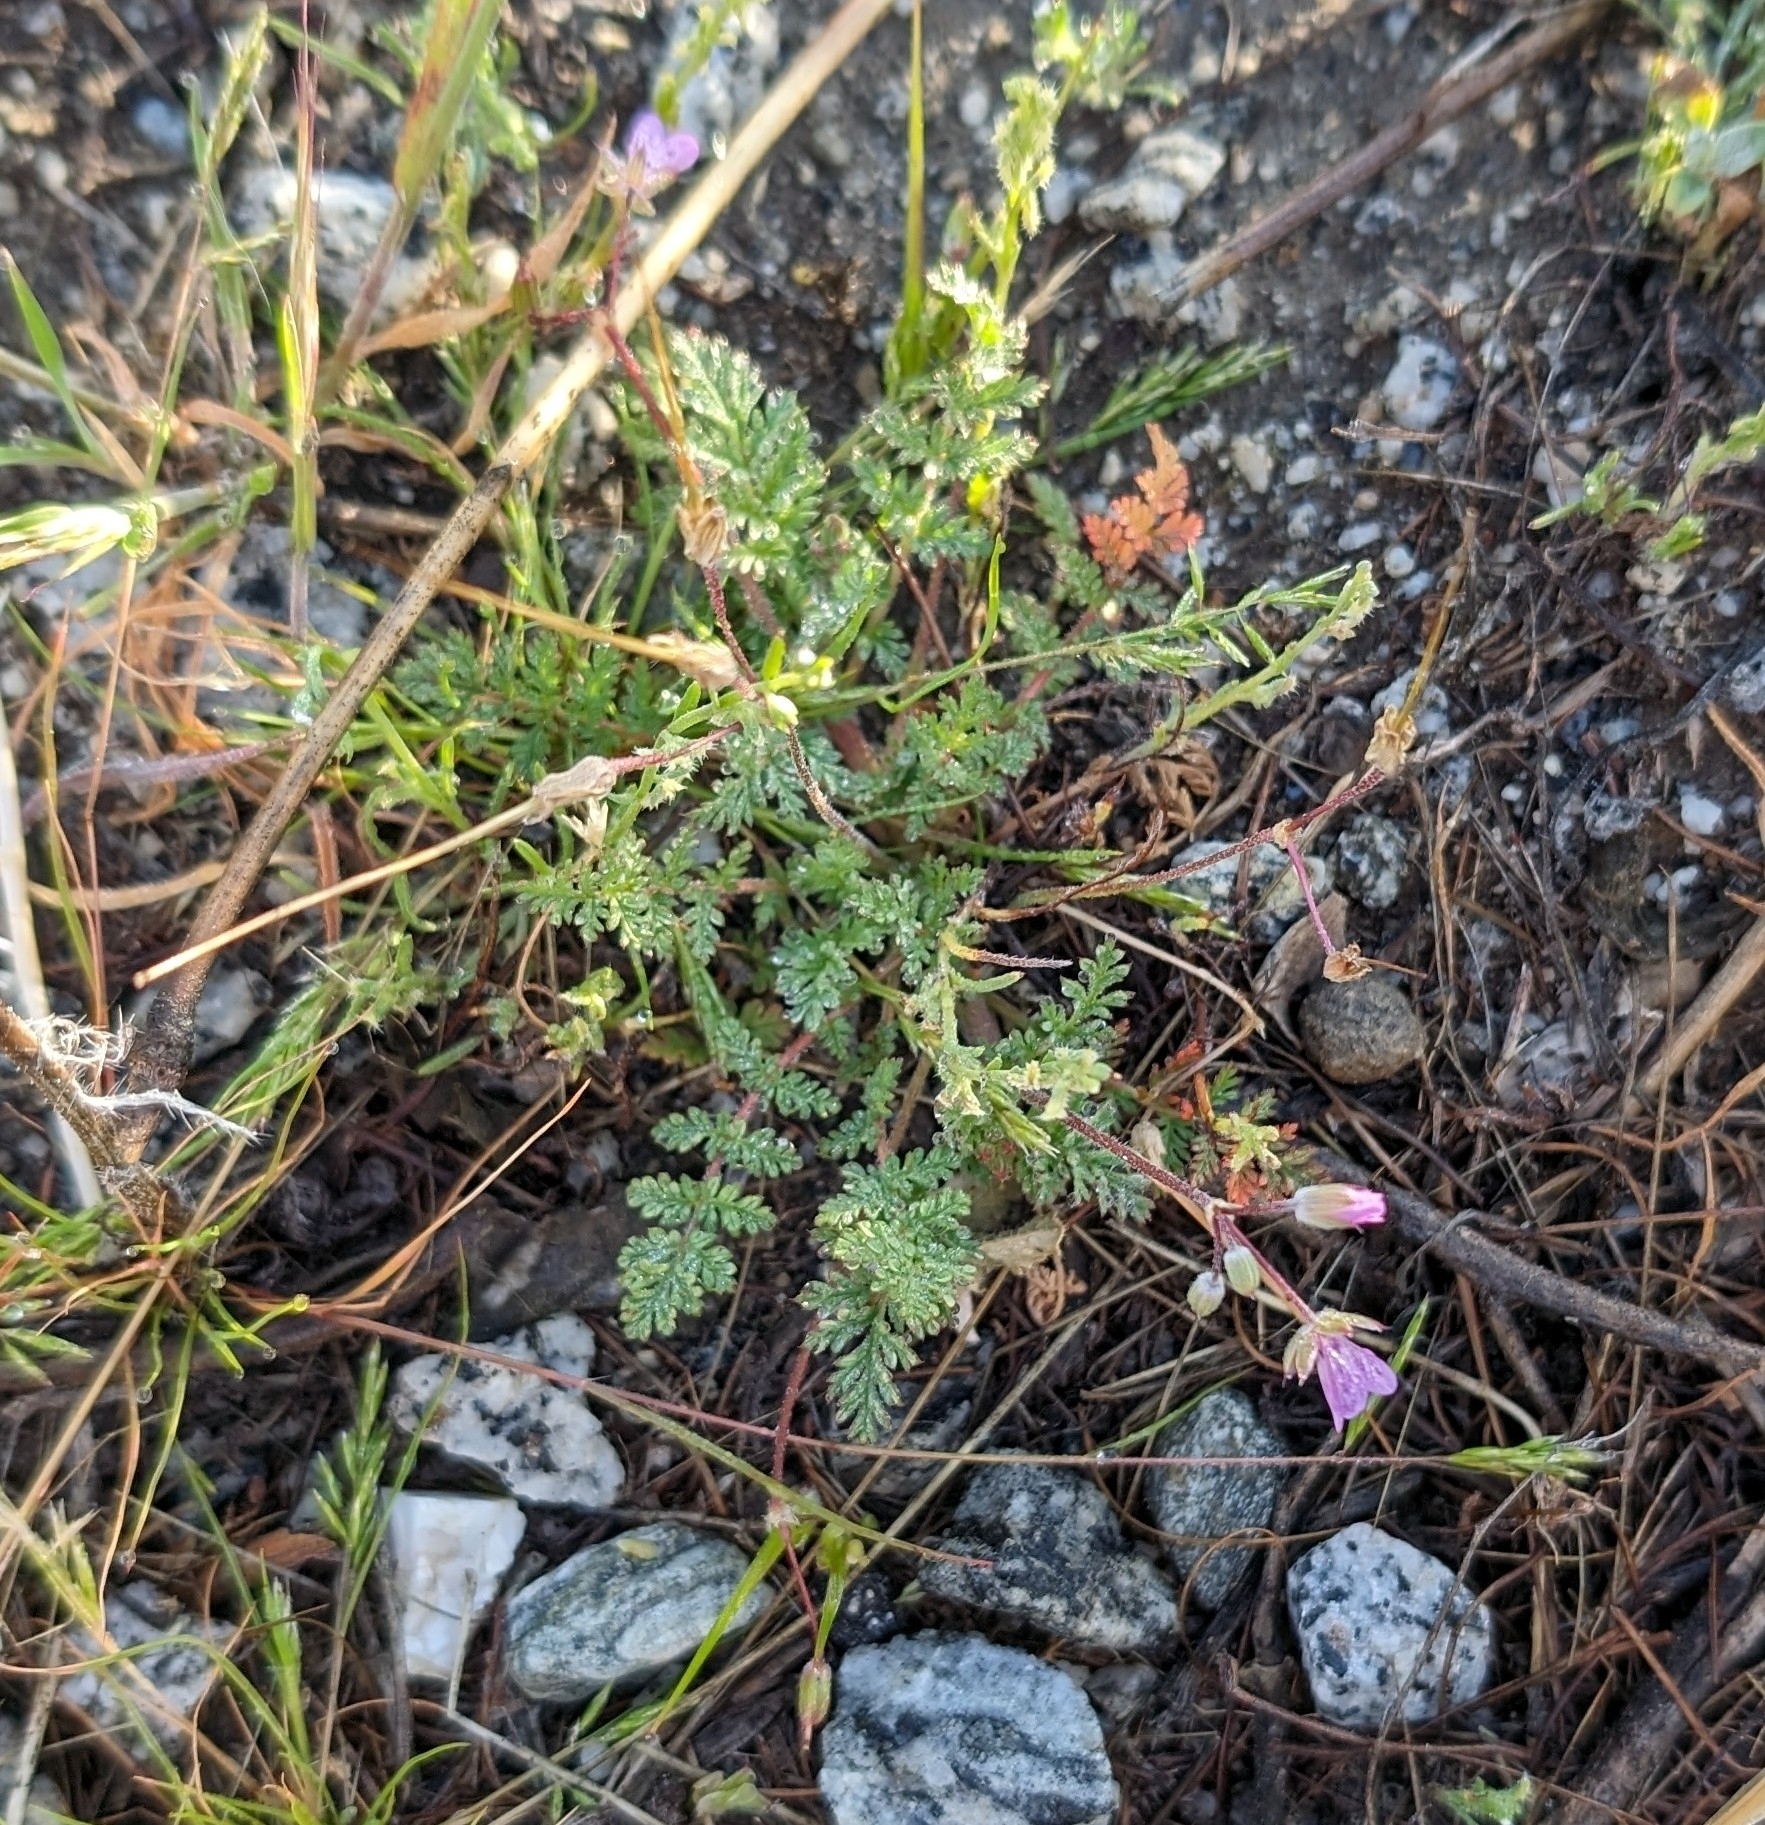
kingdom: Plantae
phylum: Tracheophyta
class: Magnoliopsida
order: Geraniales
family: Geraniaceae
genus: Erodium
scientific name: Erodium cicutarium
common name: Common stork's-bill
